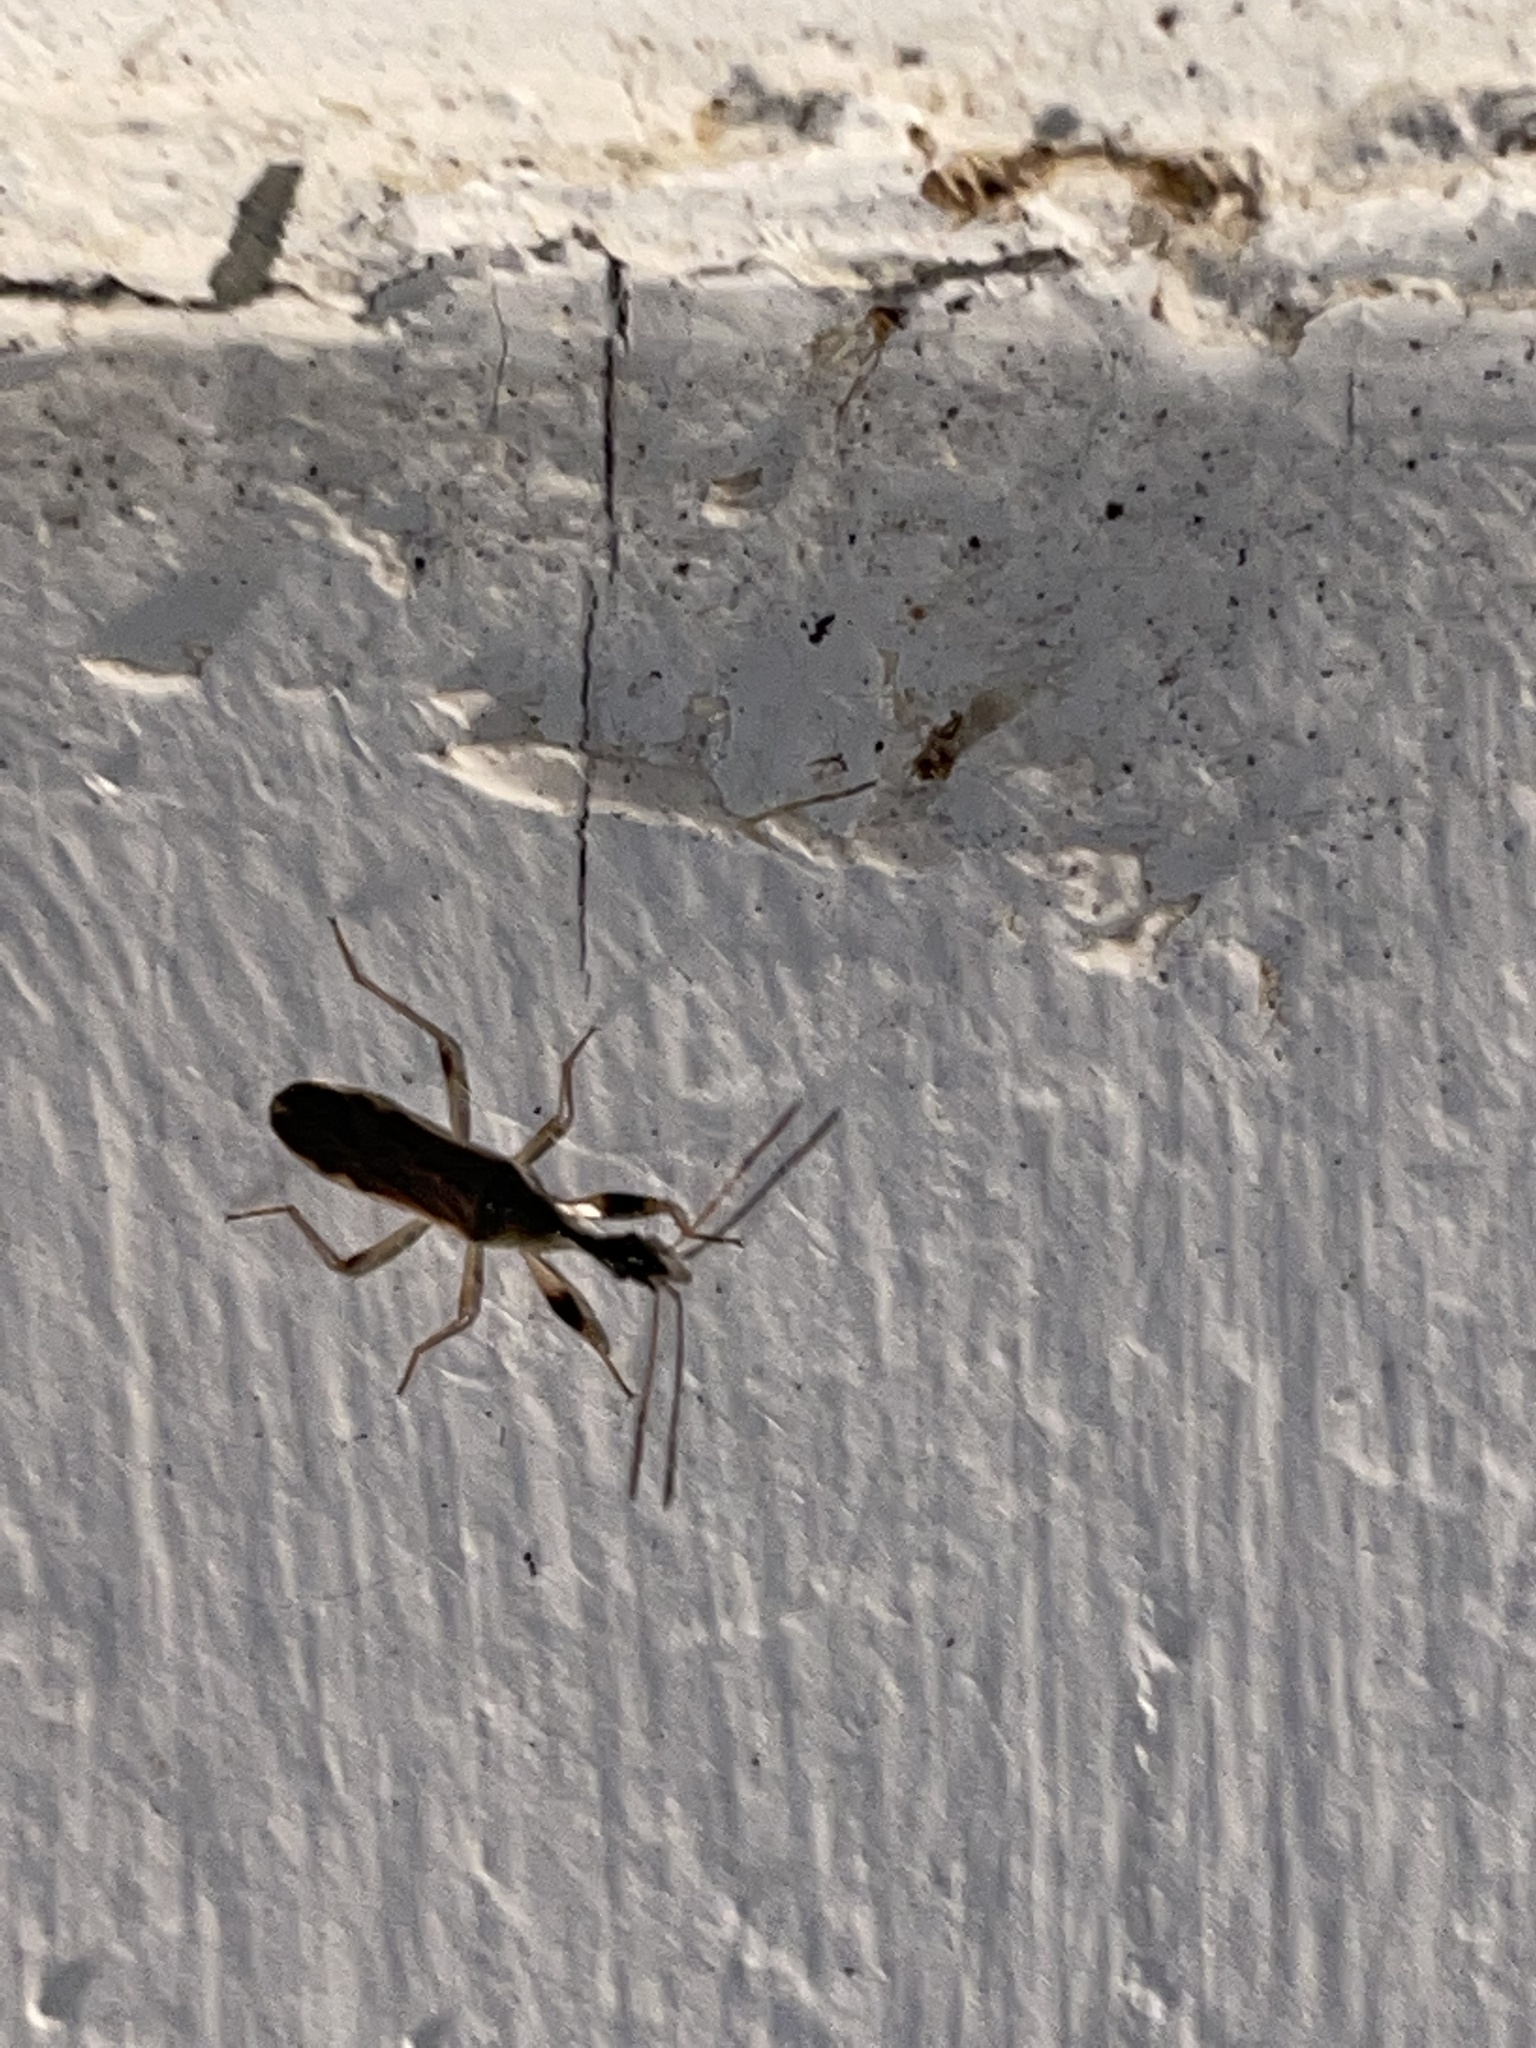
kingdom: Animalia
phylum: Arthropoda
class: Insecta
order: Hemiptera
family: Rhyparochromidae
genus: Myodocha
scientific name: Myodocha serripes
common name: Long-necked seed bug
